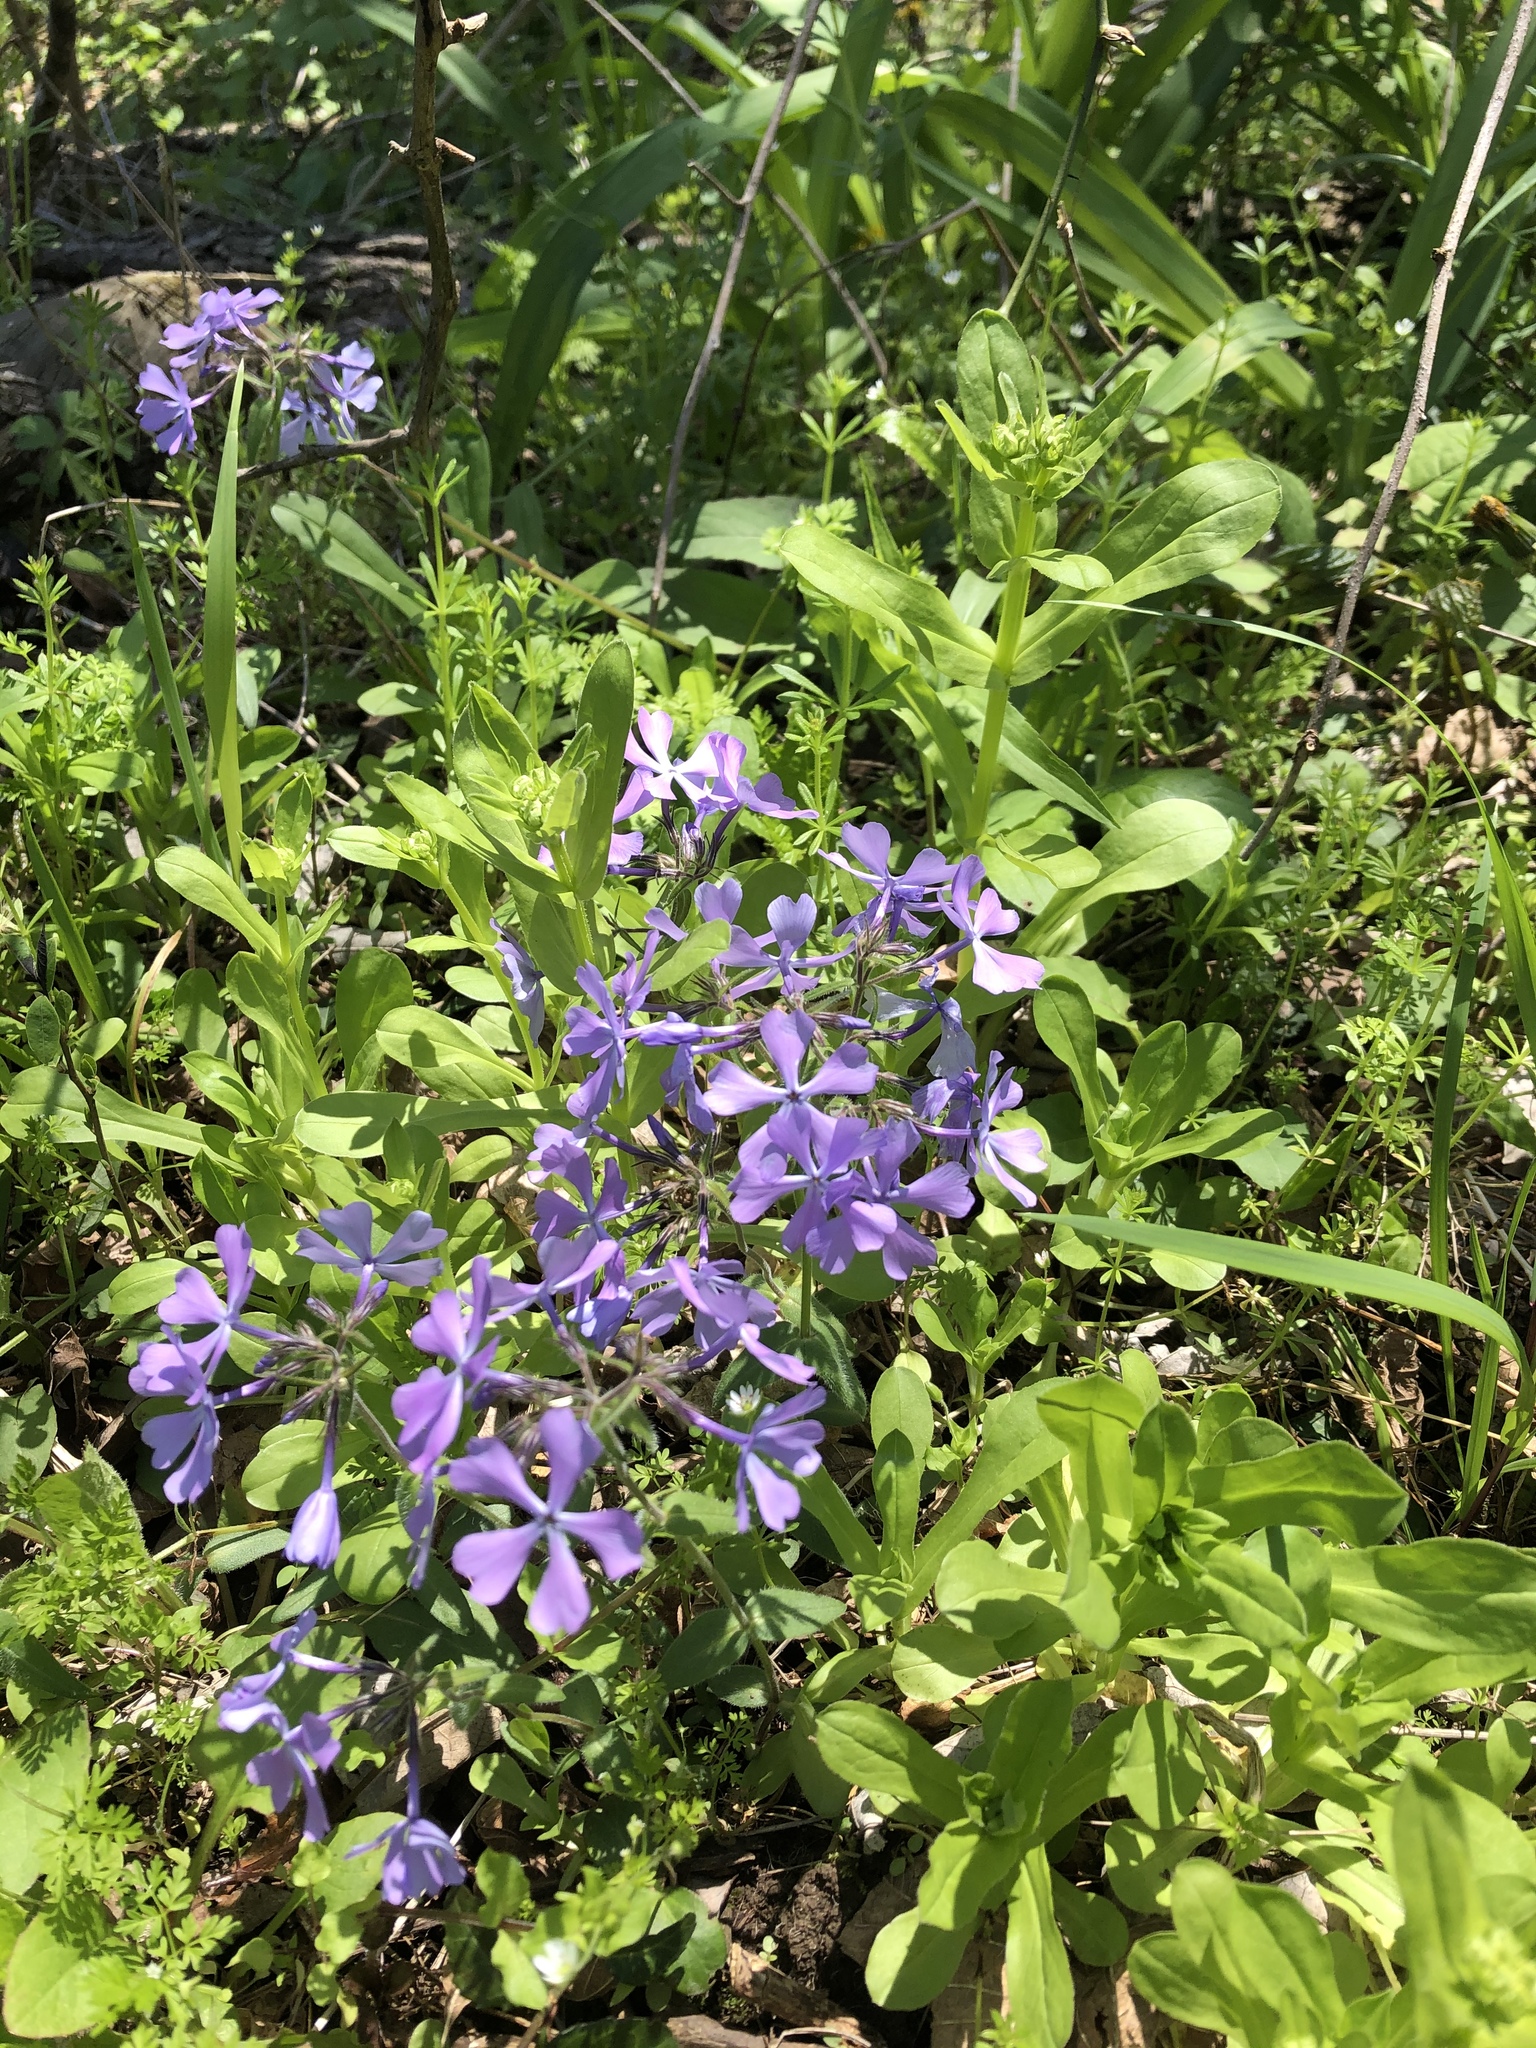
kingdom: Plantae
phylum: Tracheophyta
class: Magnoliopsida
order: Ericales
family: Polemoniaceae
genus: Phlox
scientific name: Phlox divaricata
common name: Blue phlox
